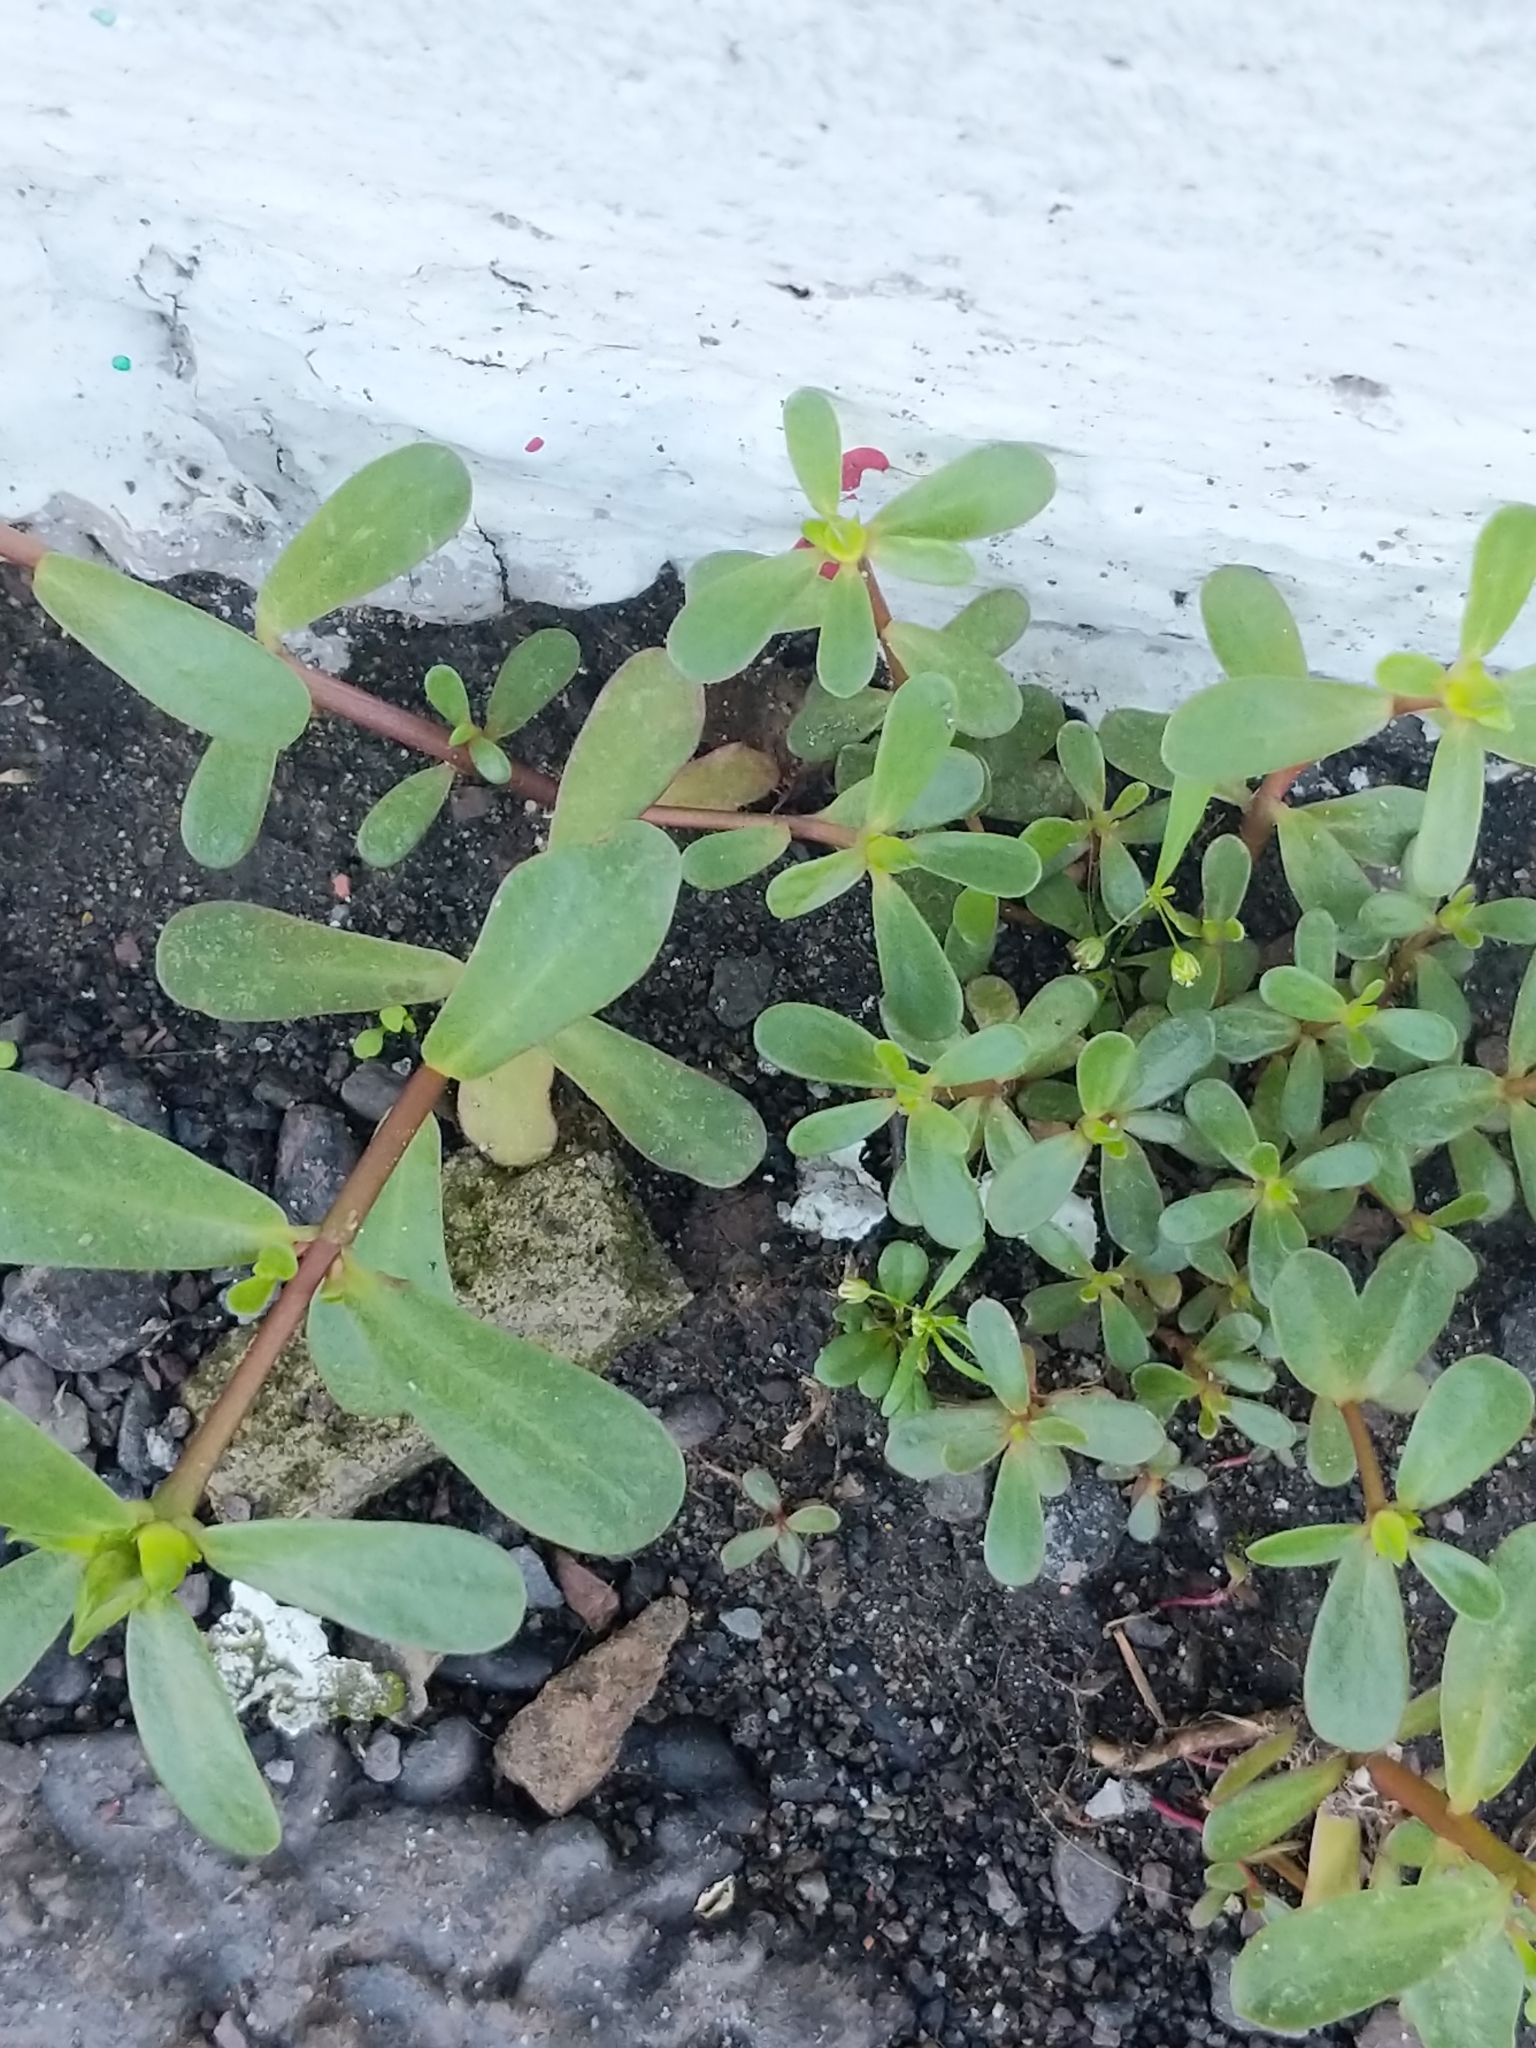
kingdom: Plantae
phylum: Tracheophyta
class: Magnoliopsida
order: Caryophyllales
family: Portulacaceae
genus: Portulaca
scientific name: Portulaca oleracea
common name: Common purslane
